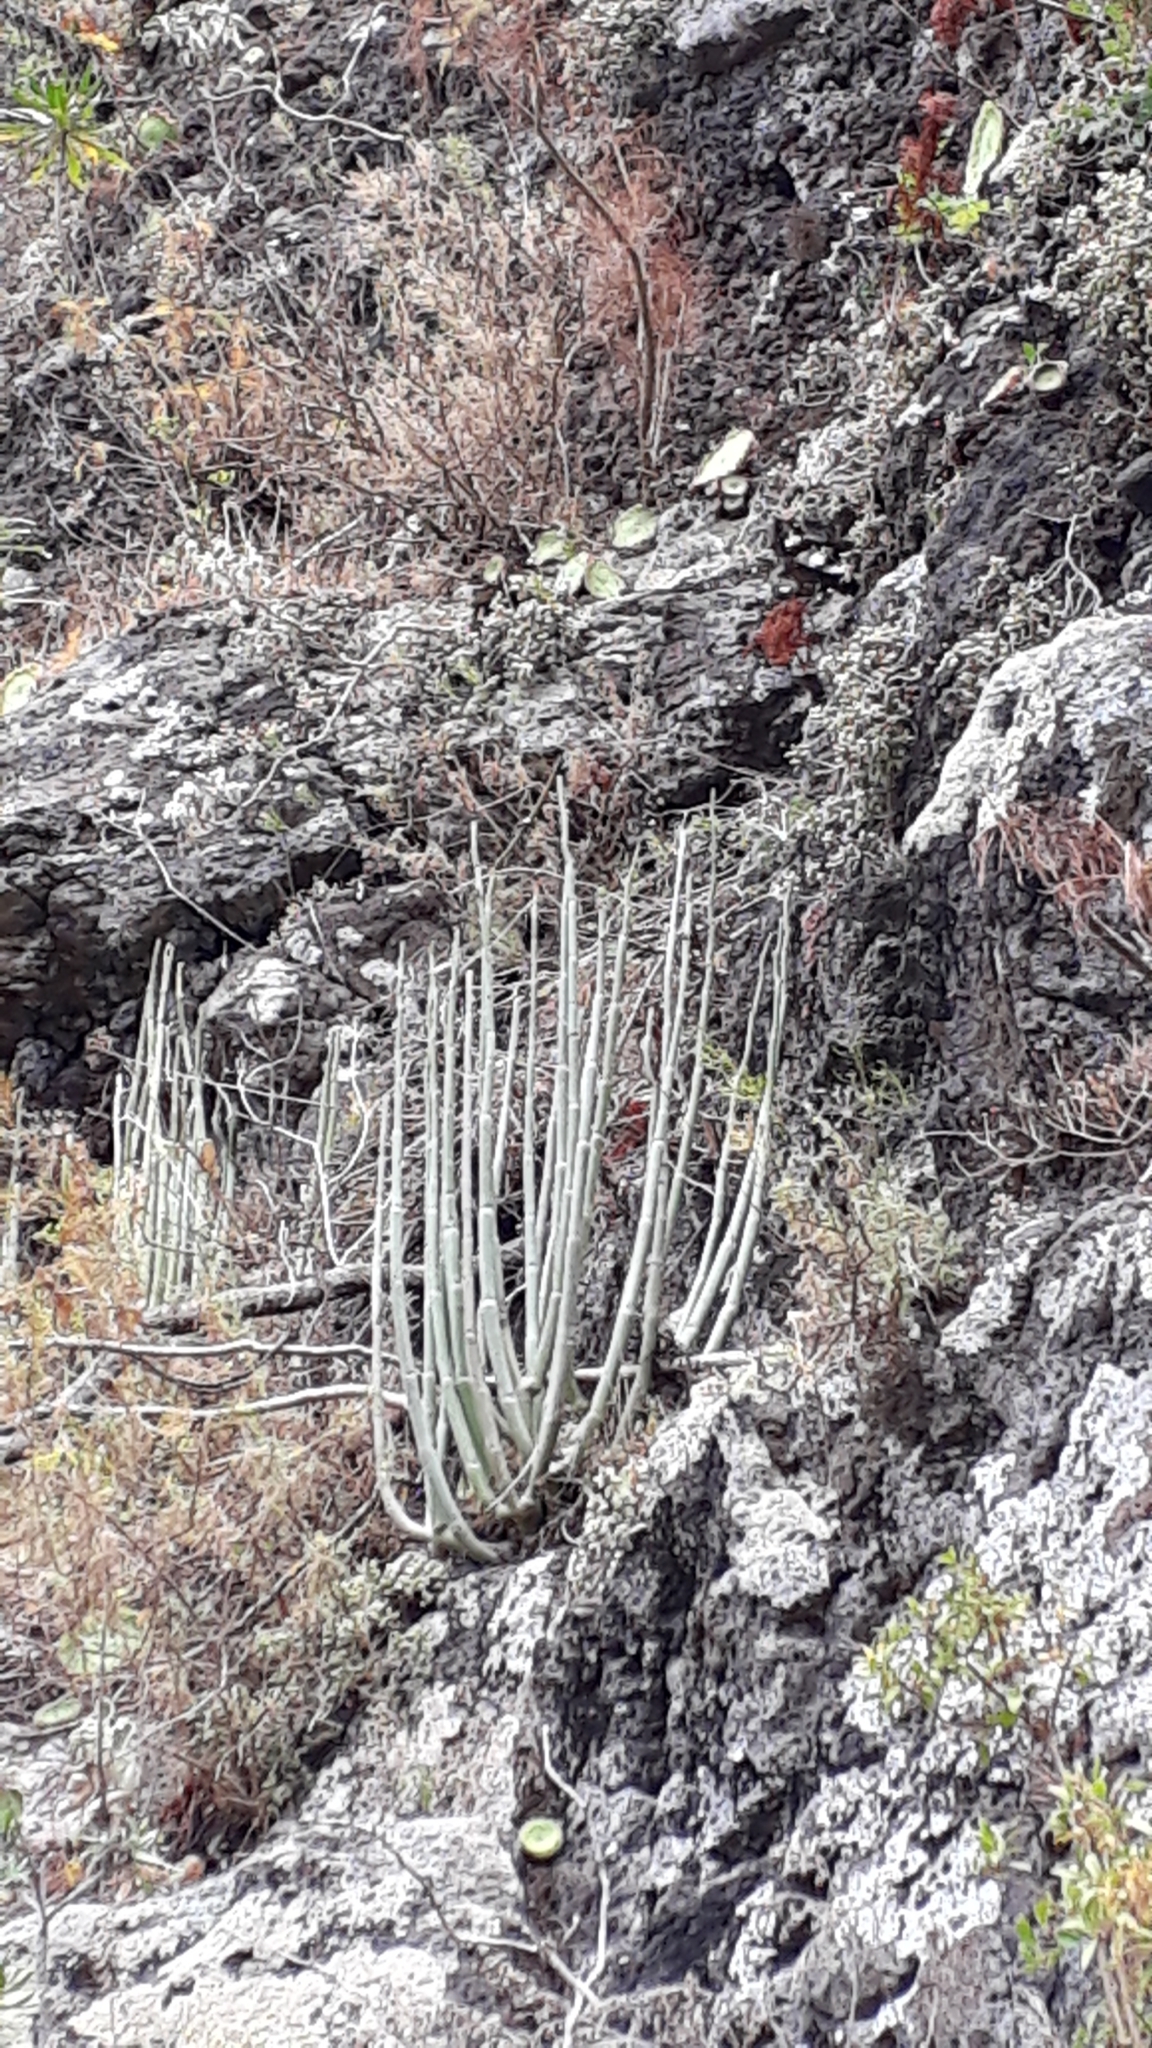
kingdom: Plantae
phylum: Tracheophyta
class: Magnoliopsida
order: Gentianales
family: Apocynaceae
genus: Ceropegia
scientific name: Ceropegia dichotoma
